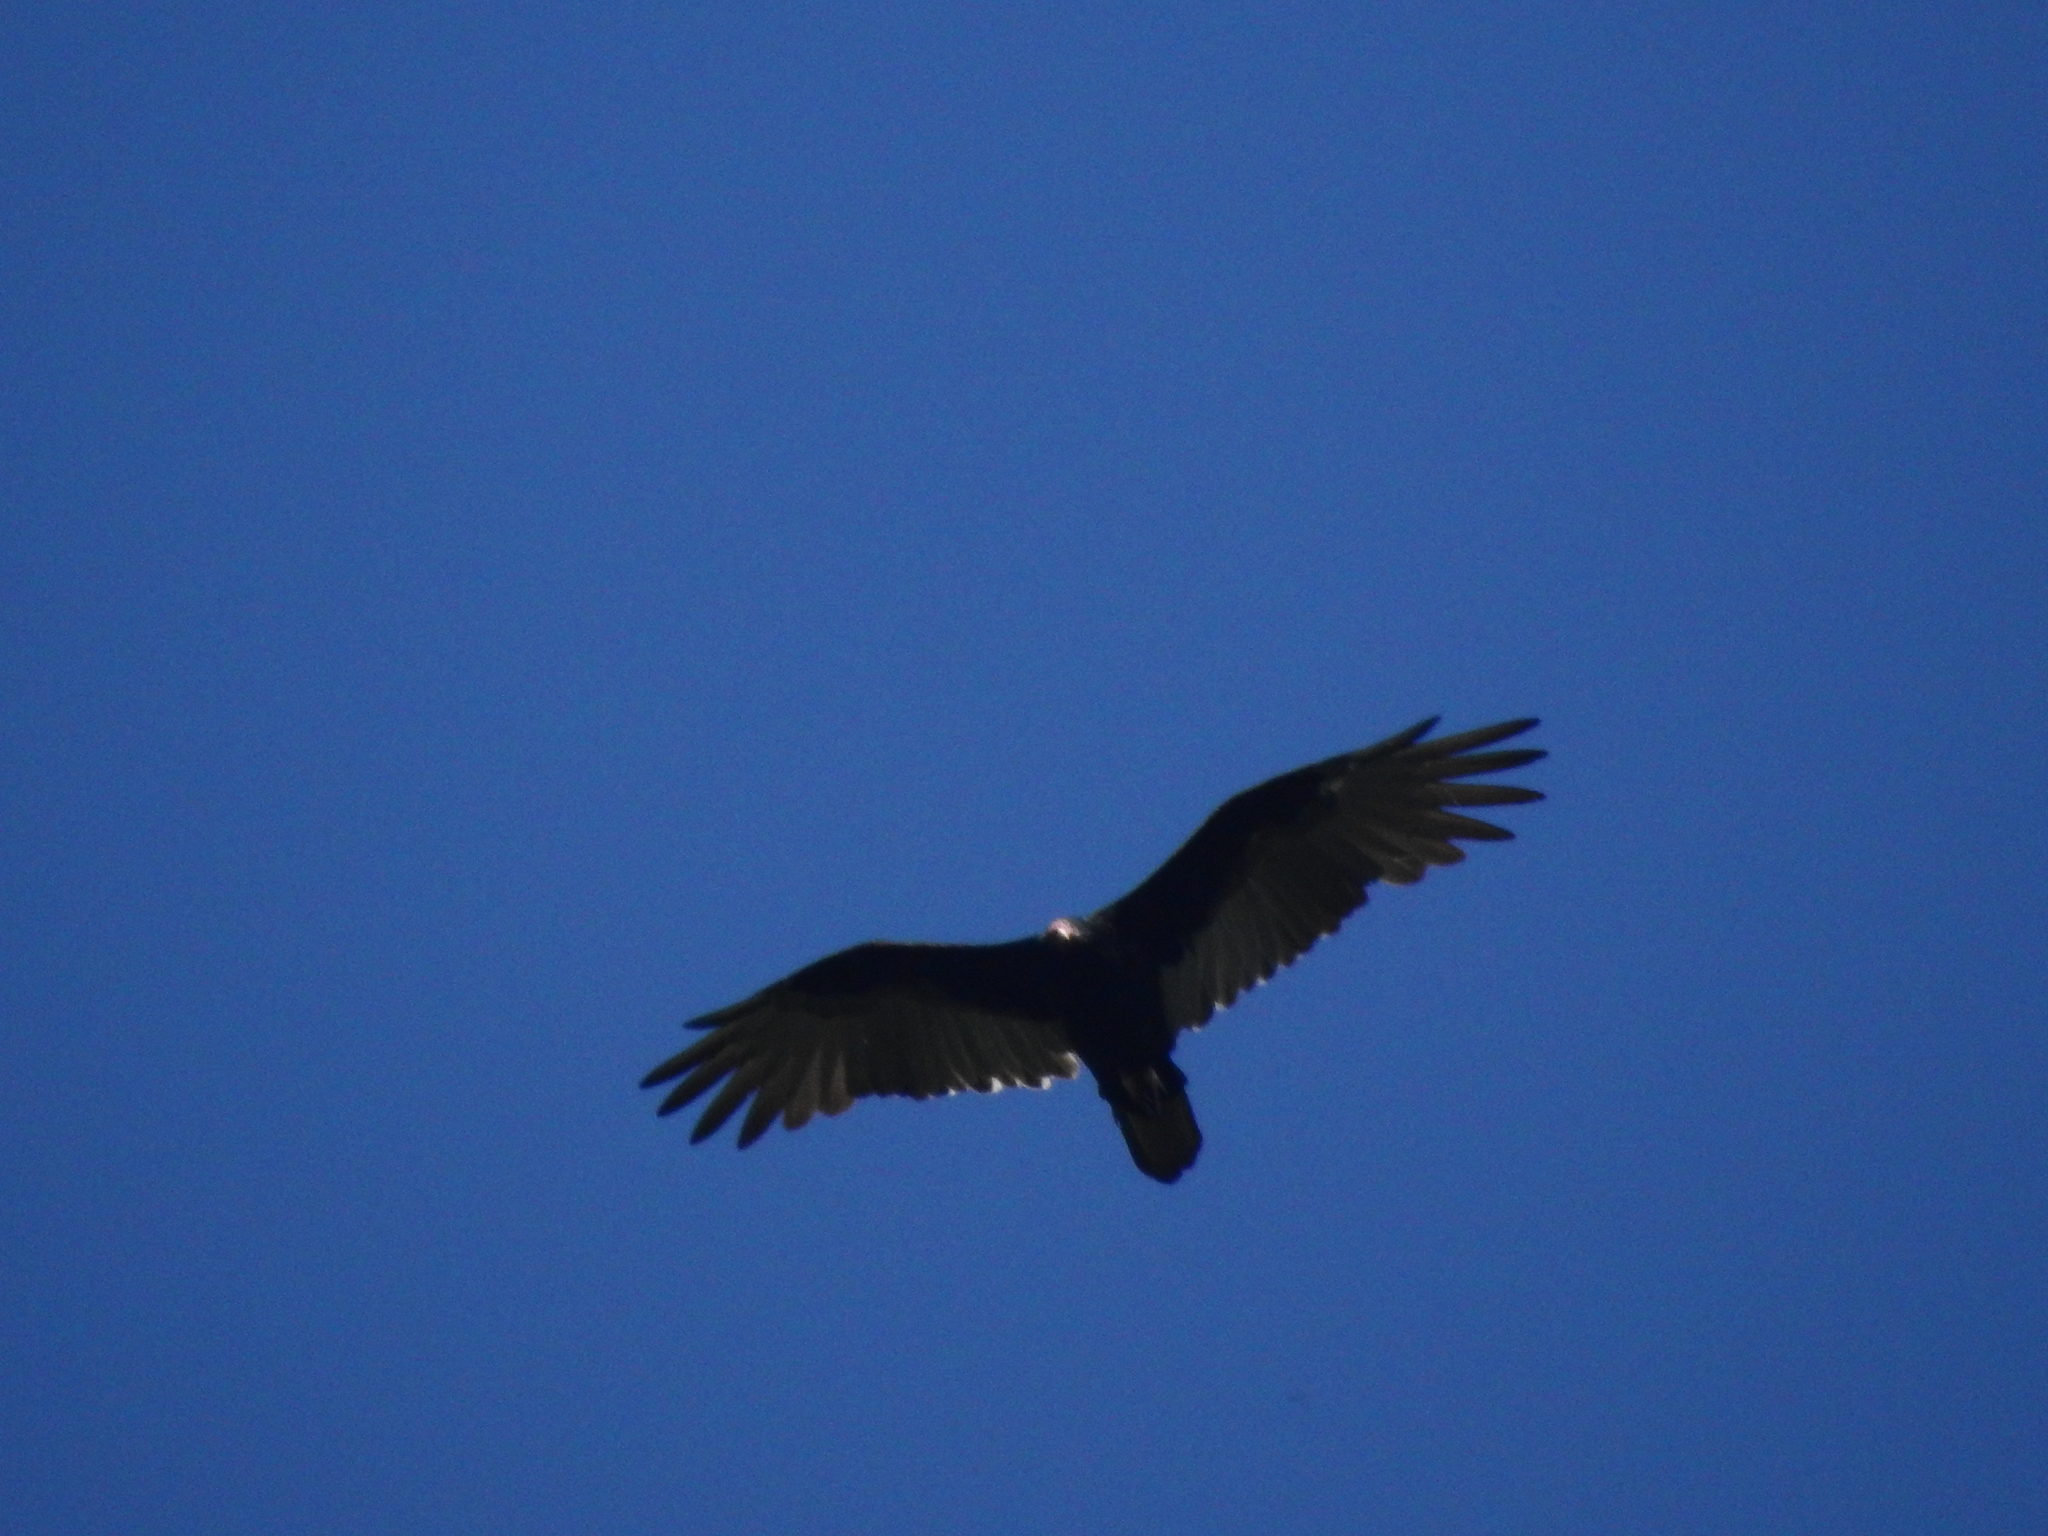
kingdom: Animalia
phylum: Chordata
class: Aves
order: Accipitriformes
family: Cathartidae
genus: Cathartes
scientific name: Cathartes aura
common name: Turkey vulture
